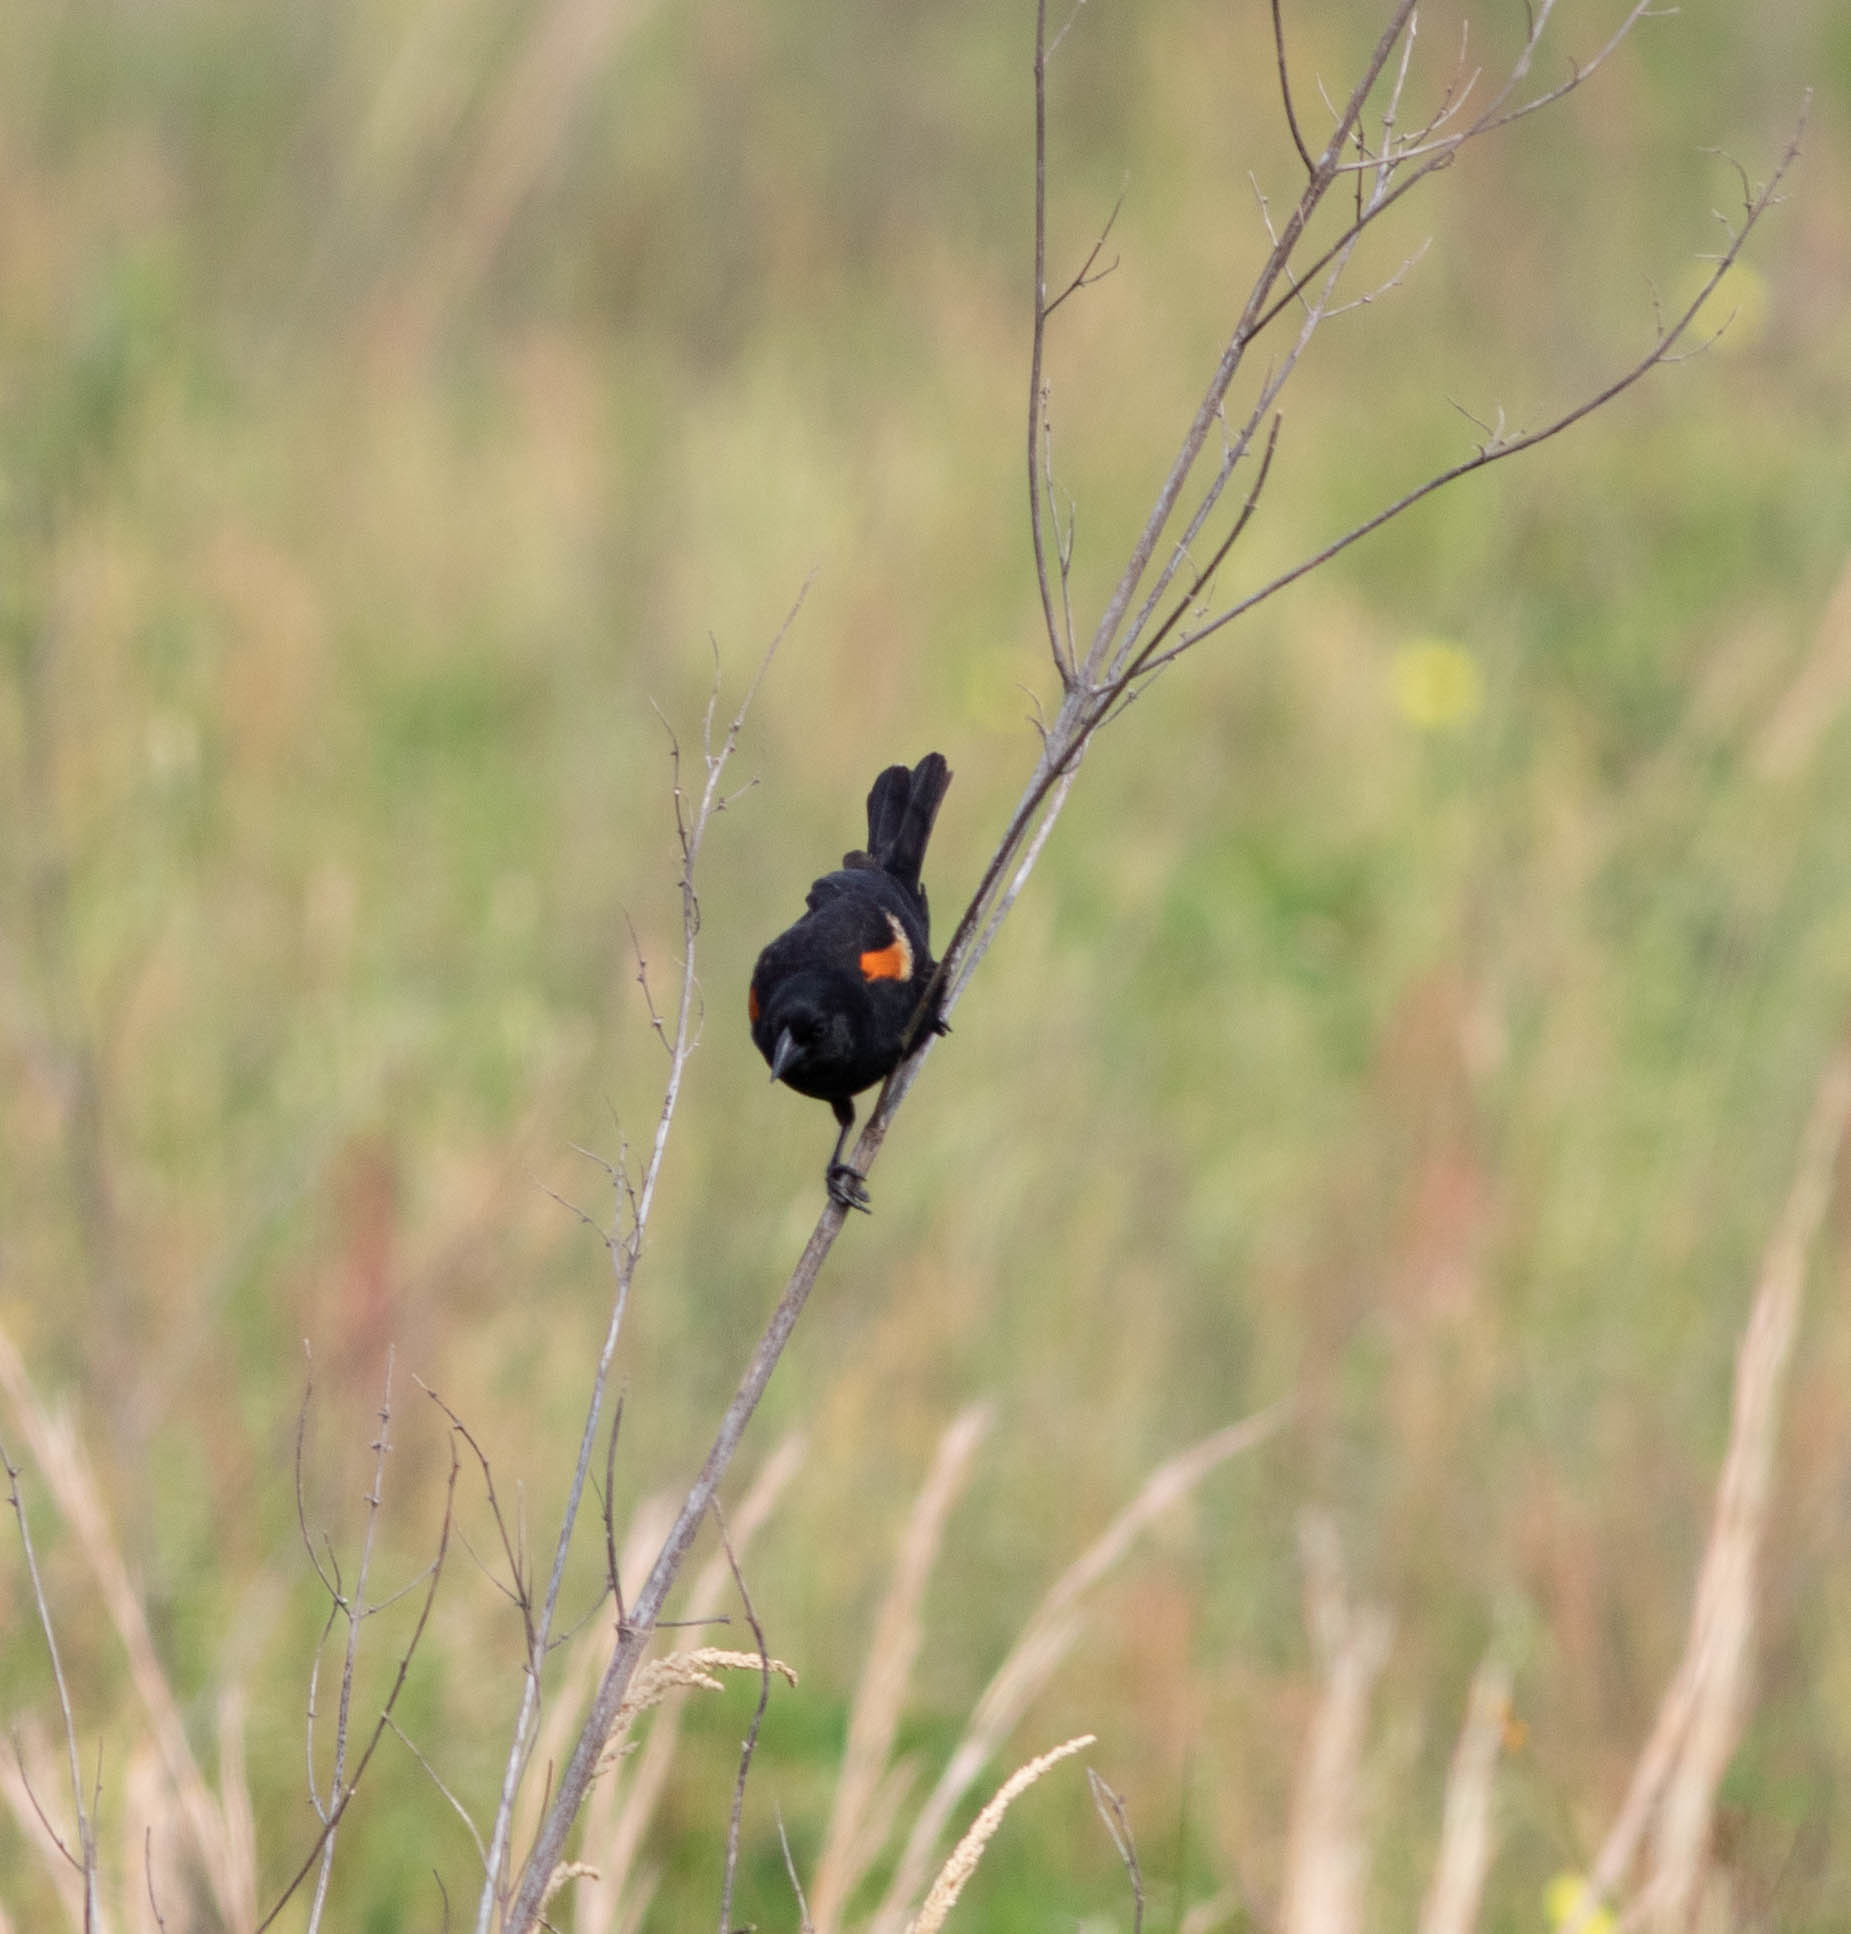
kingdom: Animalia
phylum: Chordata
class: Aves
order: Passeriformes
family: Icteridae
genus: Agelaius
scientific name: Agelaius phoeniceus
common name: Red-winged blackbird
